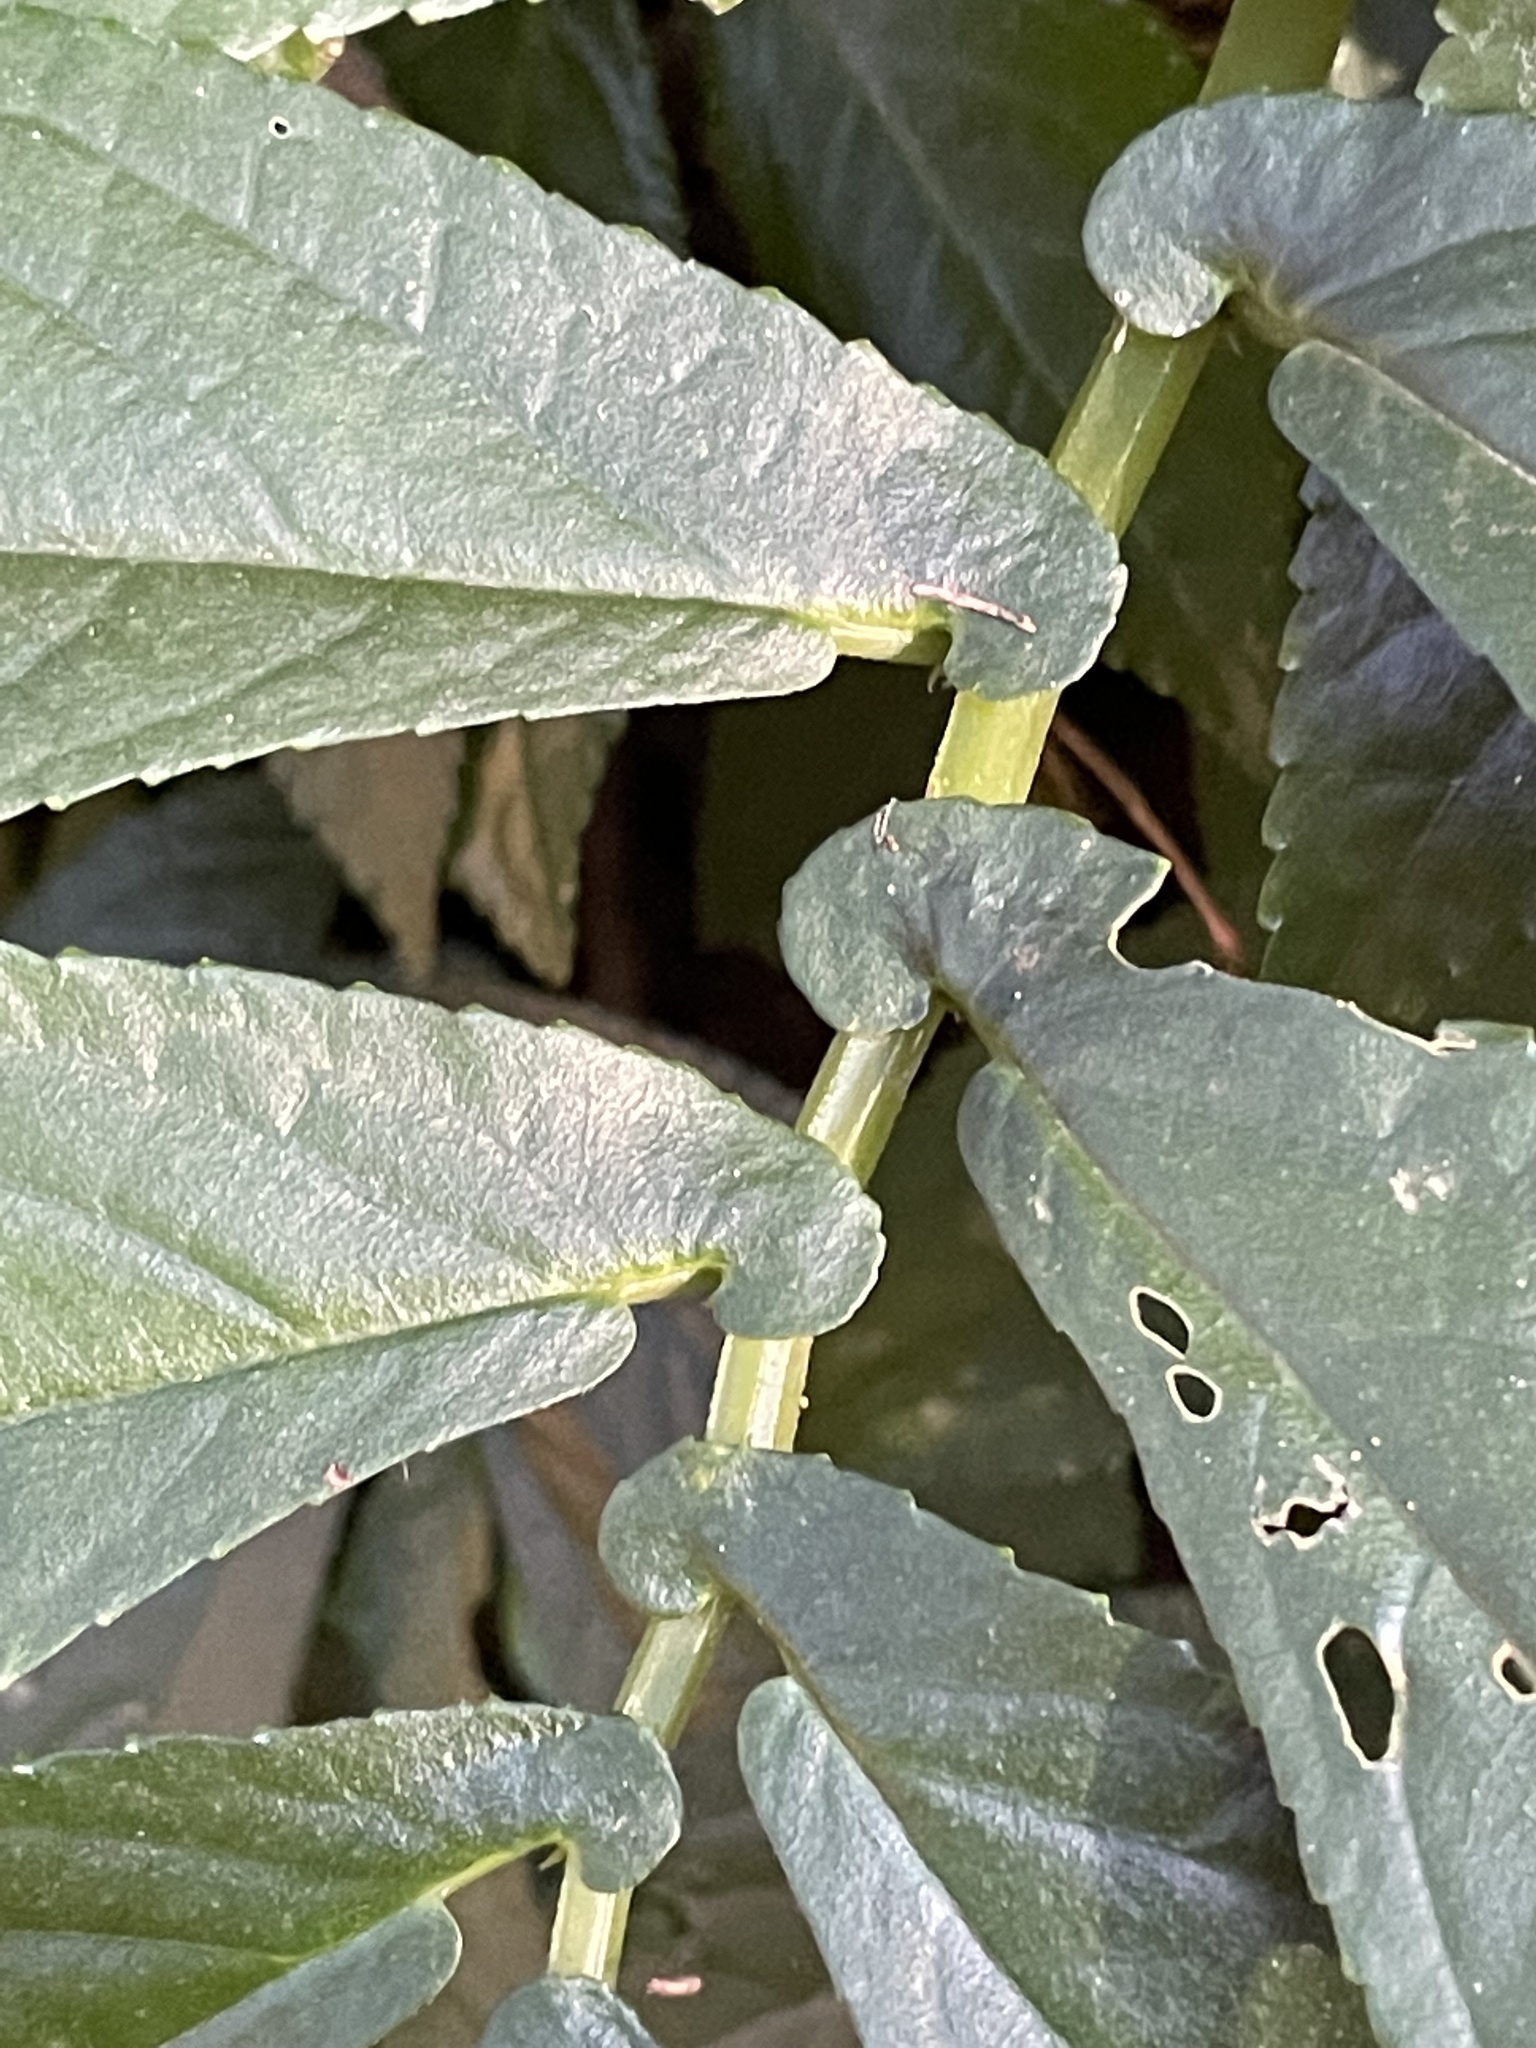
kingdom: Plantae
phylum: Tracheophyta
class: Magnoliopsida
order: Rosales
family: Urticaceae
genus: Elatostema
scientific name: Elatostema reticulatum
